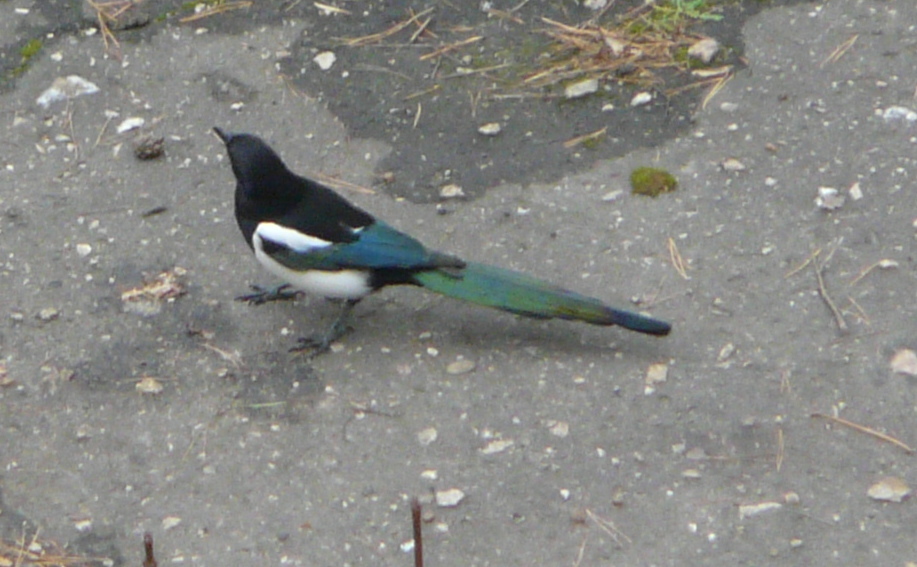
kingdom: Animalia
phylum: Chordata
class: Aves
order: Passeriformes
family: Corvidae
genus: Pica
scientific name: Pica pica
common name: Eurasian magpie
